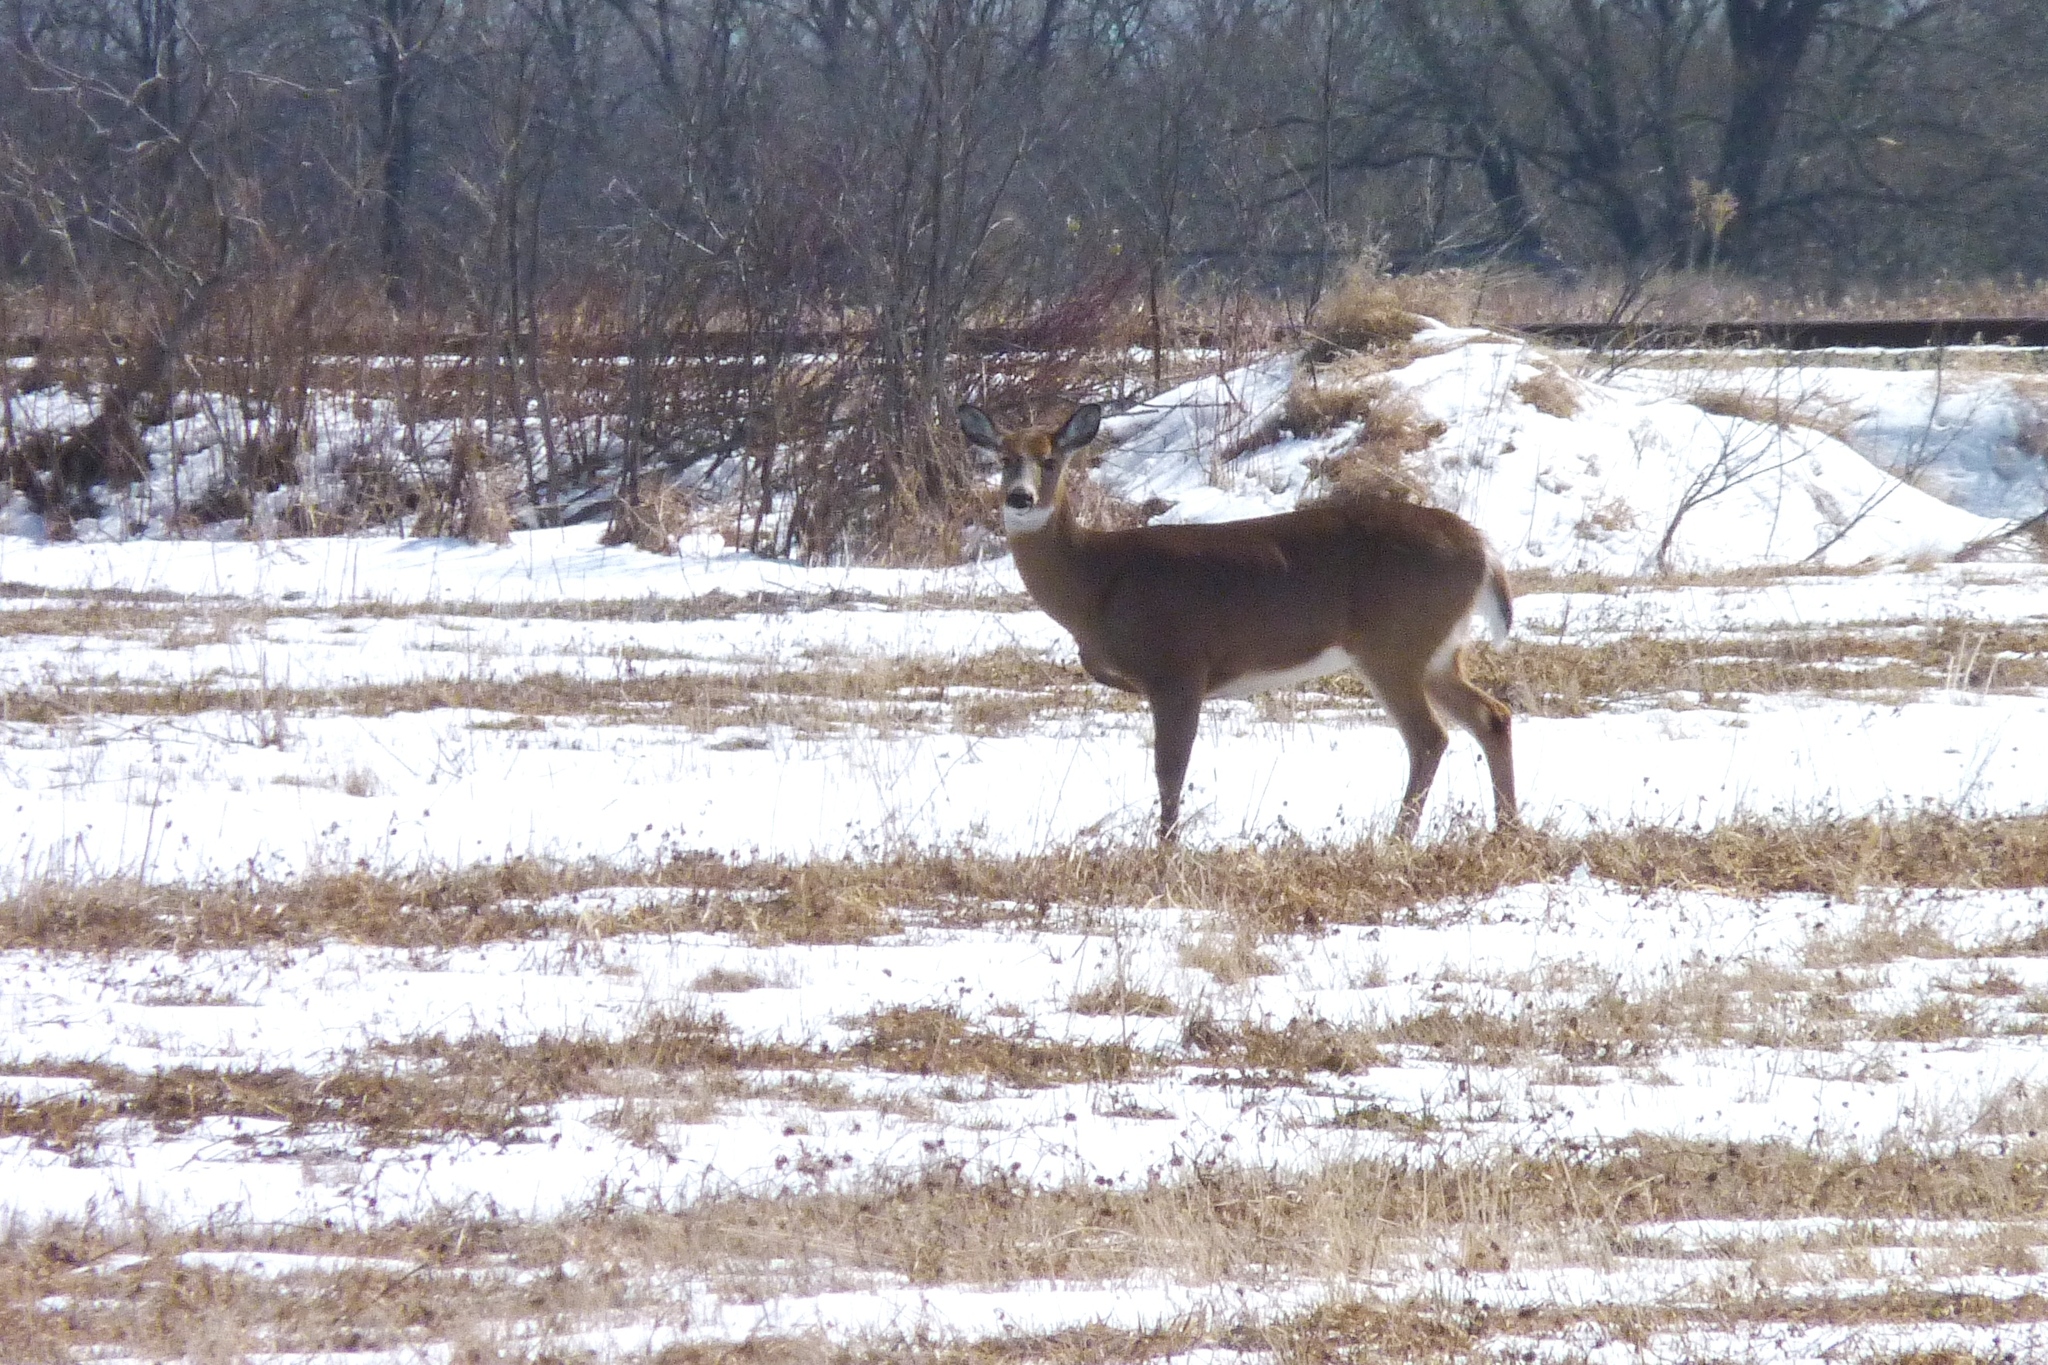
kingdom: Animalia
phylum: Chordata
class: Mammalia
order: Artiodactyla
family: Cervidae
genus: Odocoileus
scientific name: Odocoileus virginianus
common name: White-tailed deer
